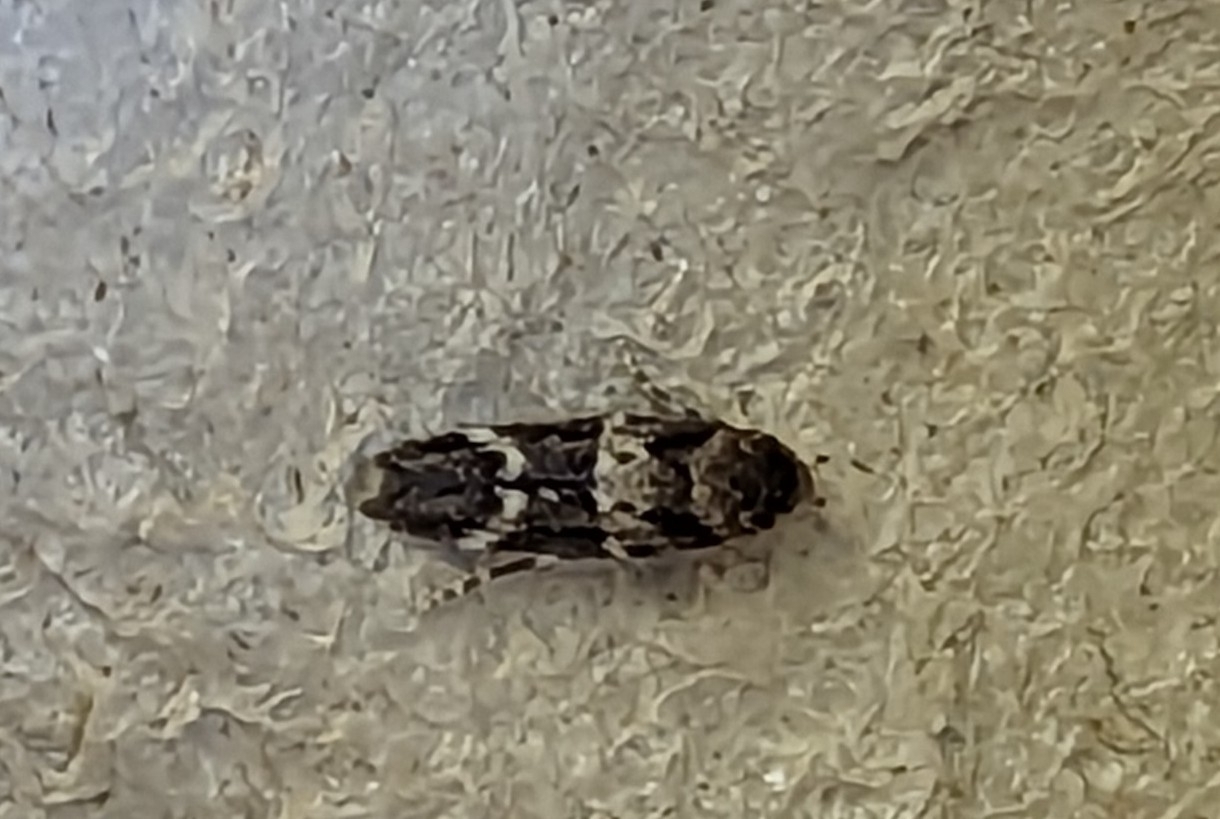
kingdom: Animalia
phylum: Arthropoda
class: Insecta
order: Lepidoptera
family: Momphidae
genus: Mompha
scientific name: Mompha subbistrigella
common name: Garden cosmet
